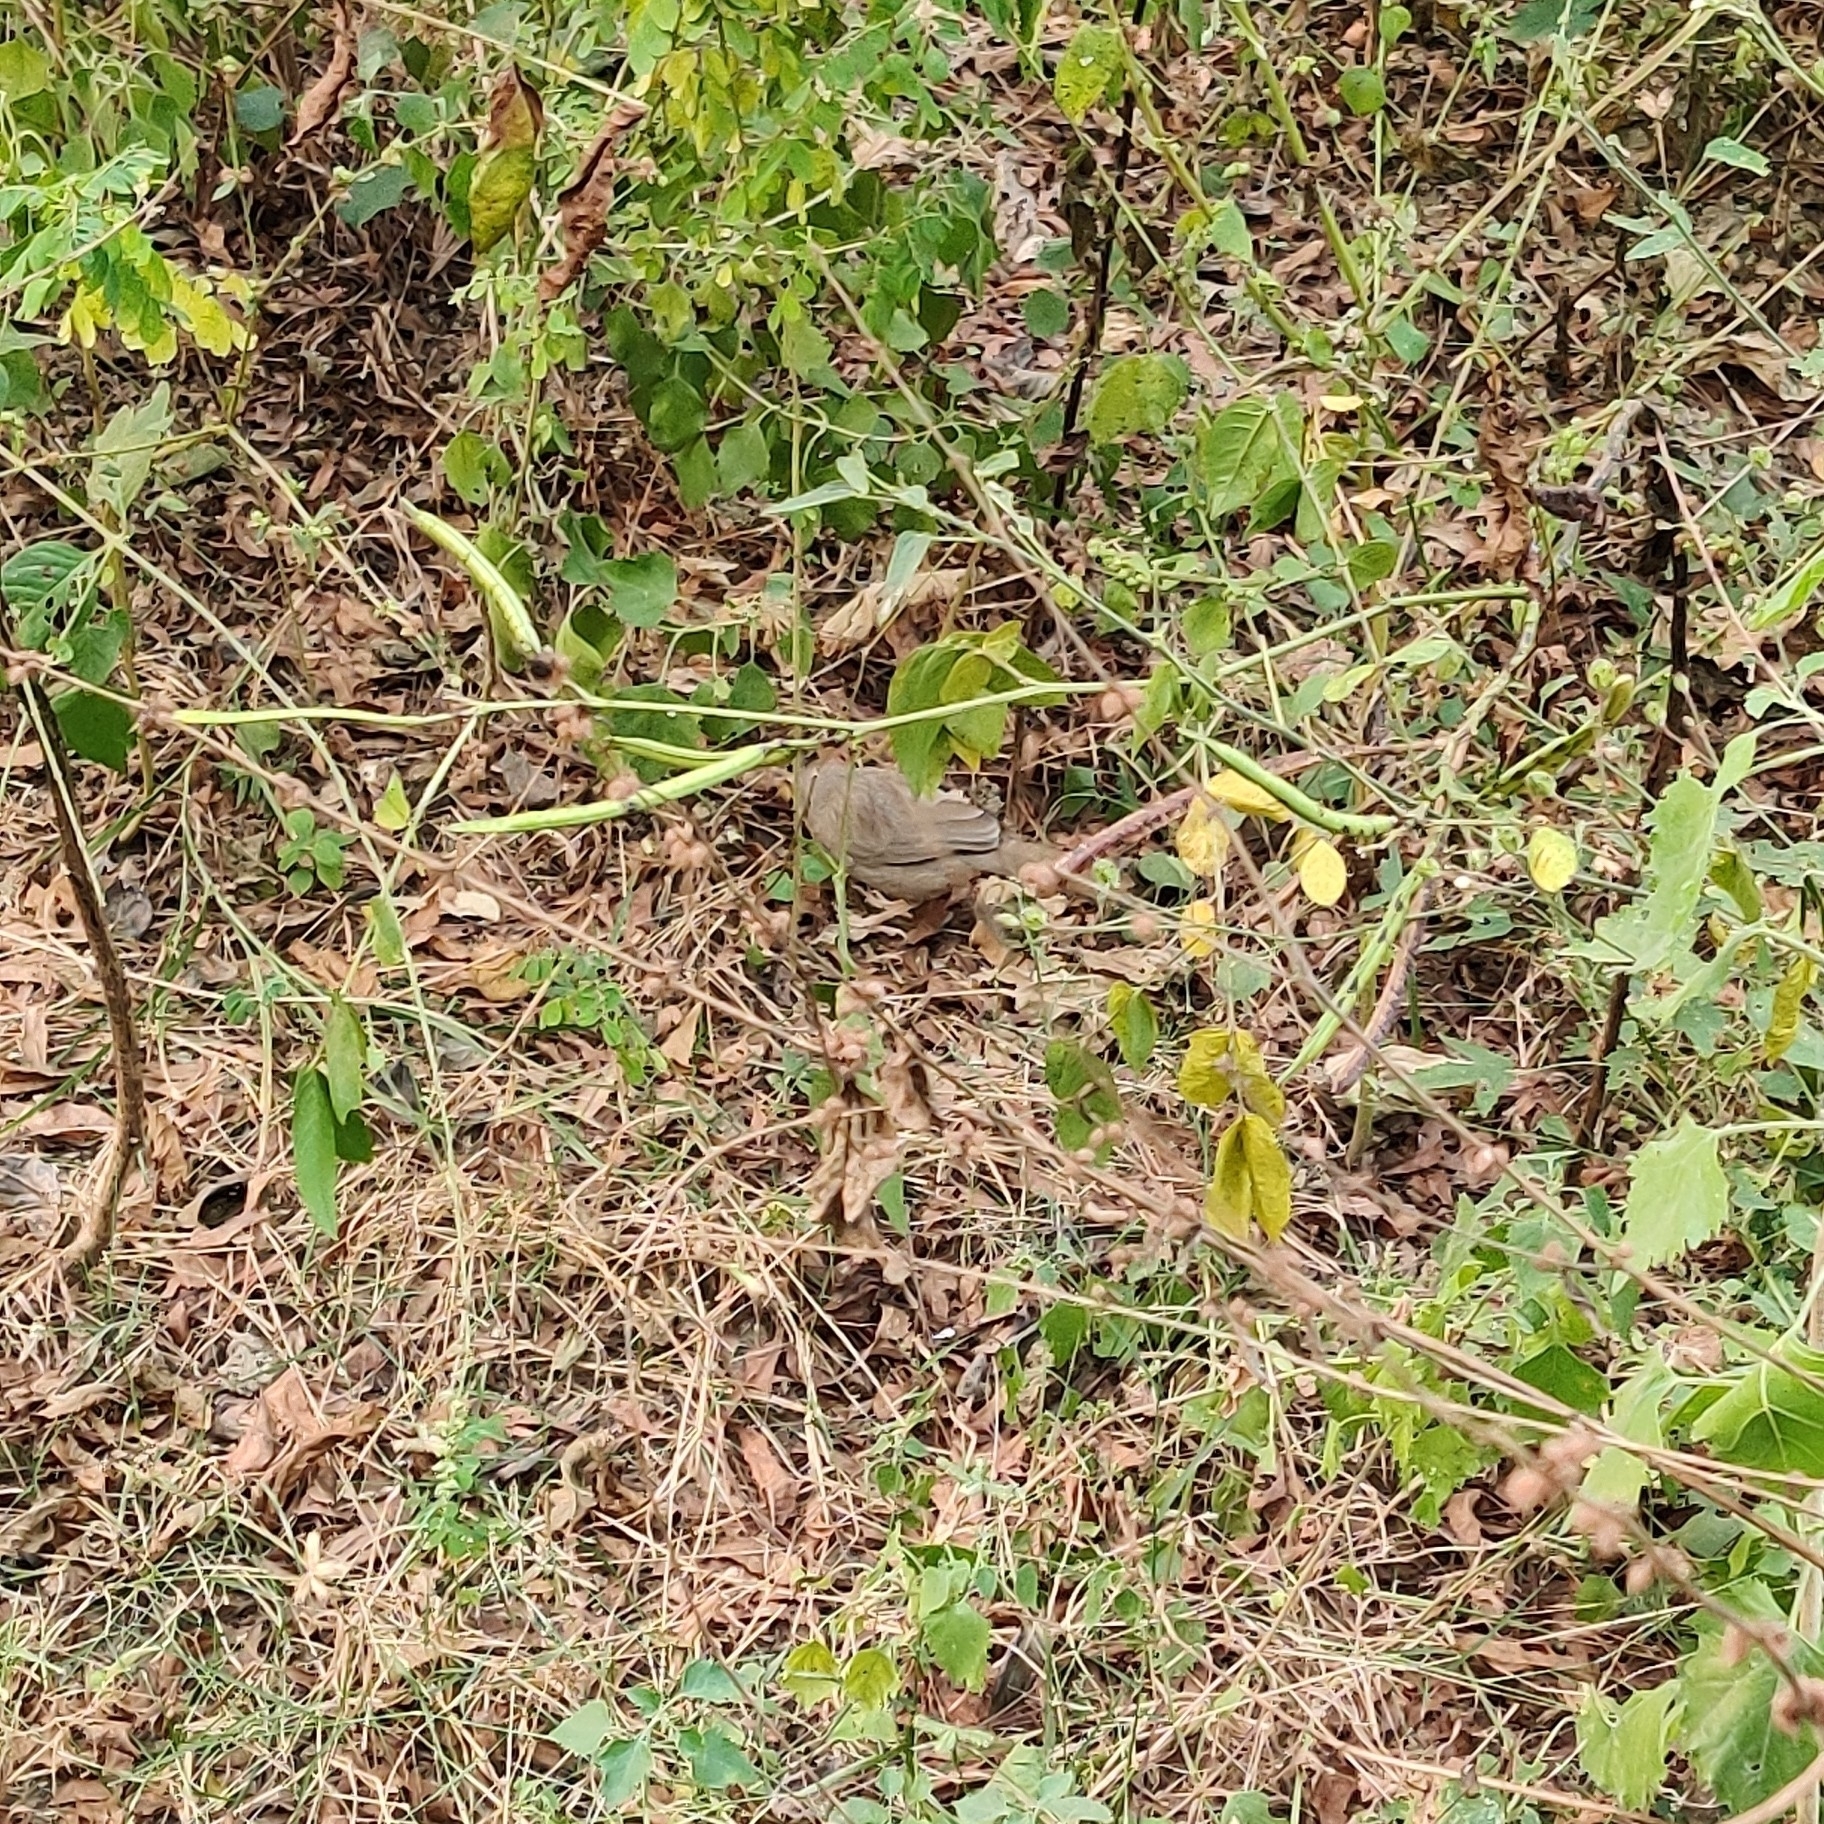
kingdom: Animalia
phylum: Chordata
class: Aves
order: Passeriformes
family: Leiothrichidae
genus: Turdoides
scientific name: Turdoides striata
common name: Jungle babbler
